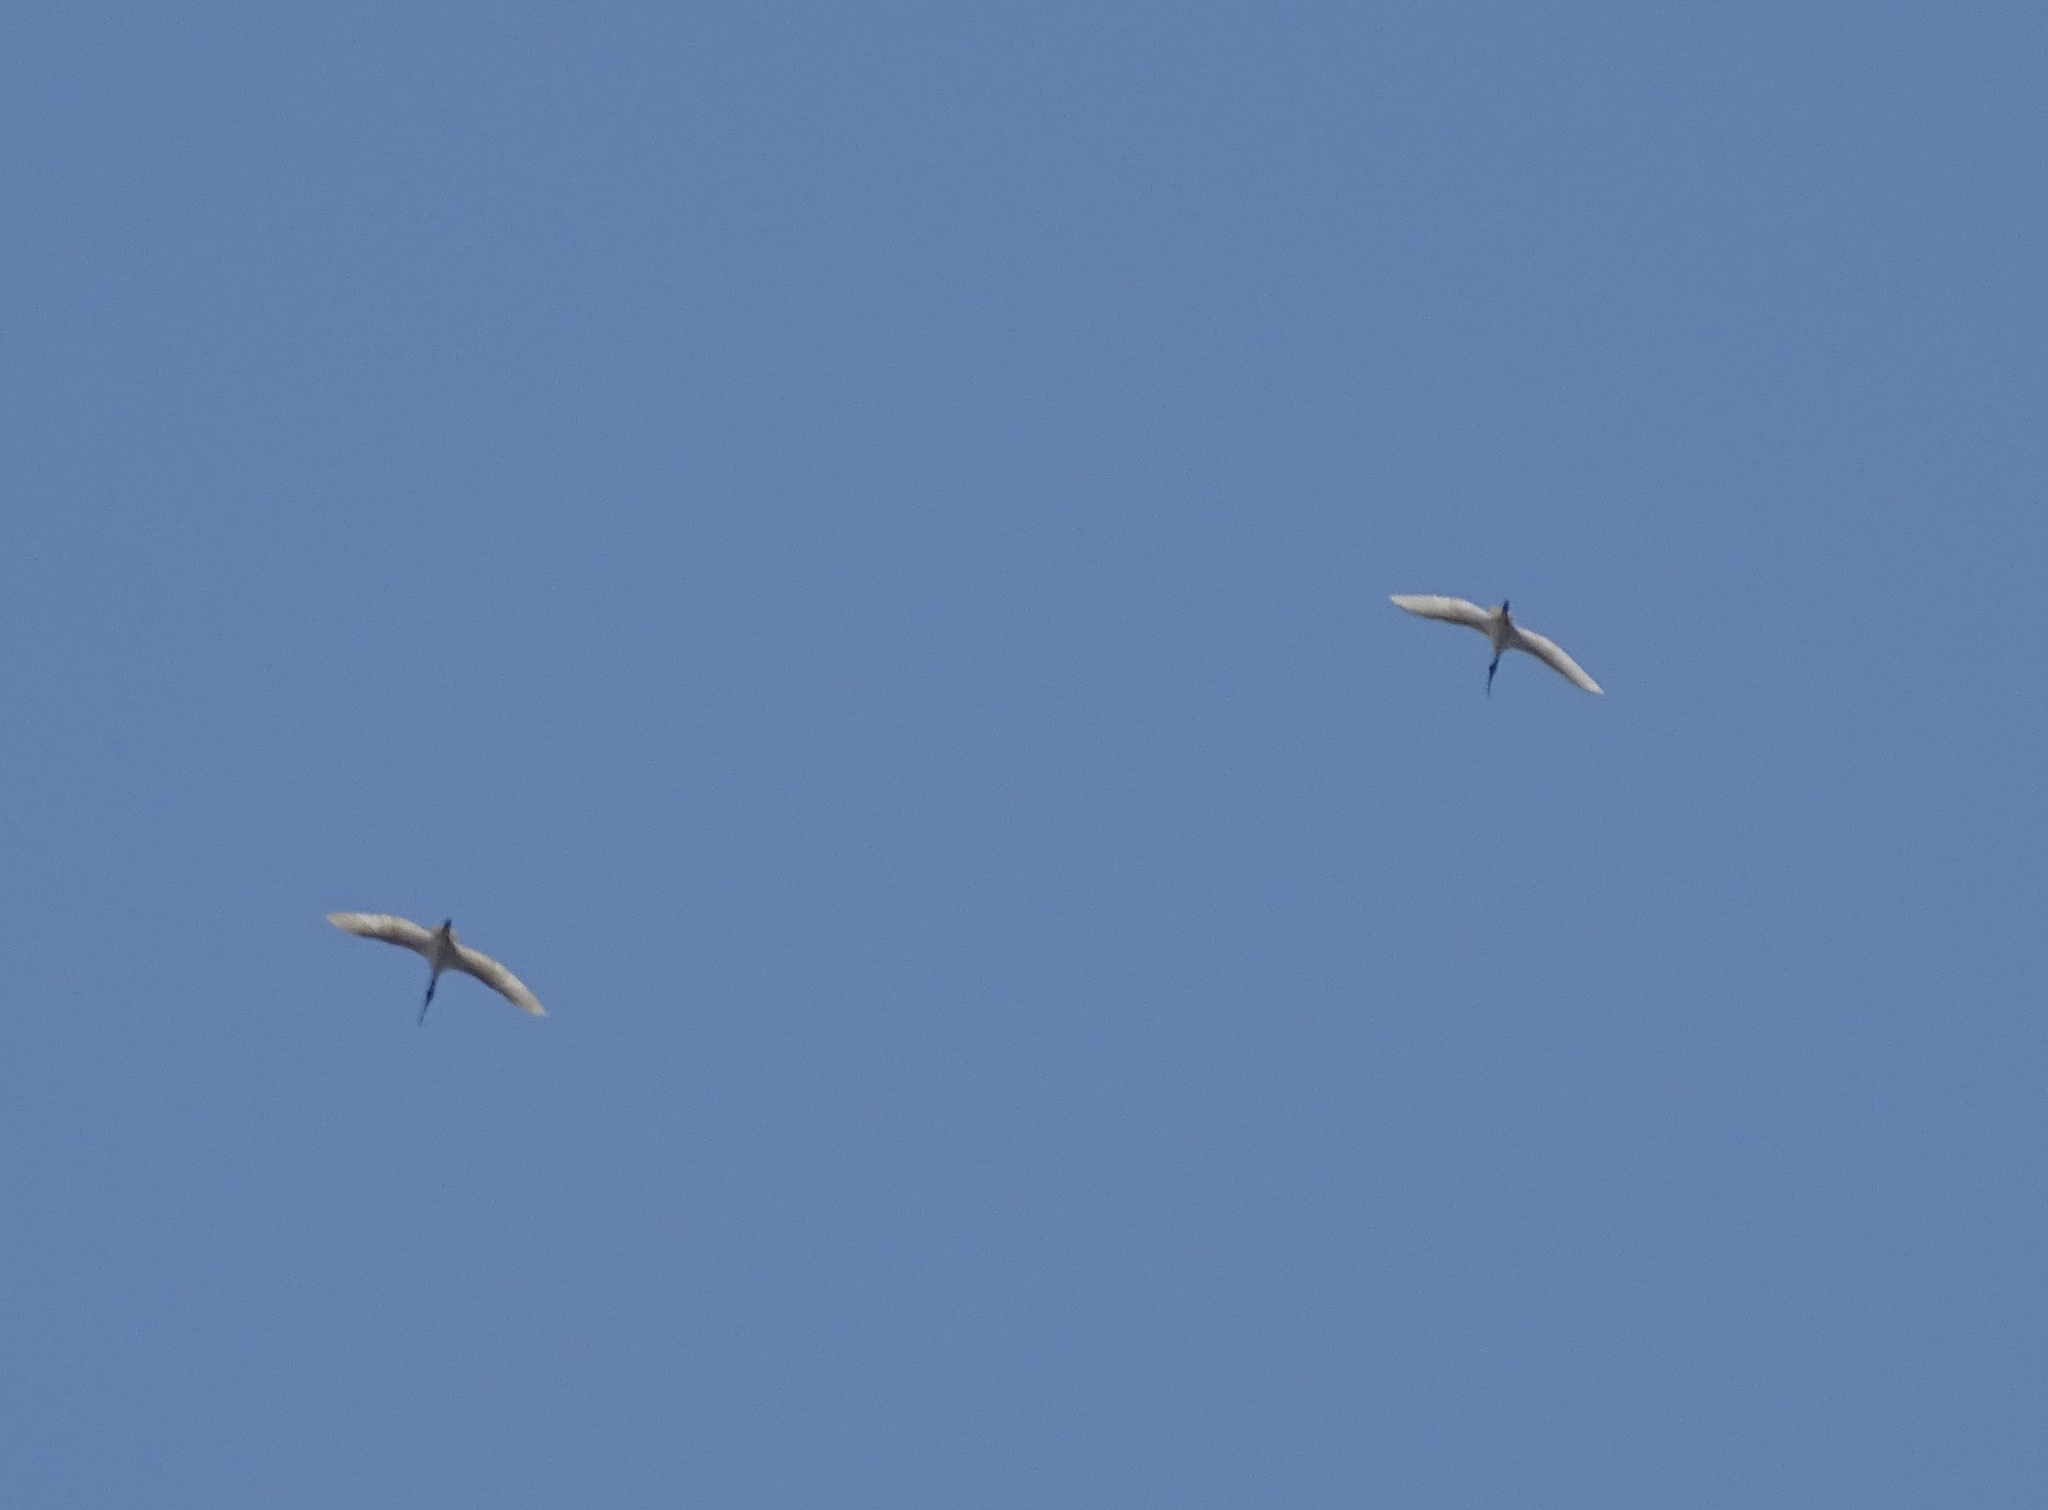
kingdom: Animalia
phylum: Chordata
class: Aves
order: Pelecaniformes
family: Threskiornithidae
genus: Threskiornis
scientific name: Threskiornis melanocephalus
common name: Black-headed ibis
